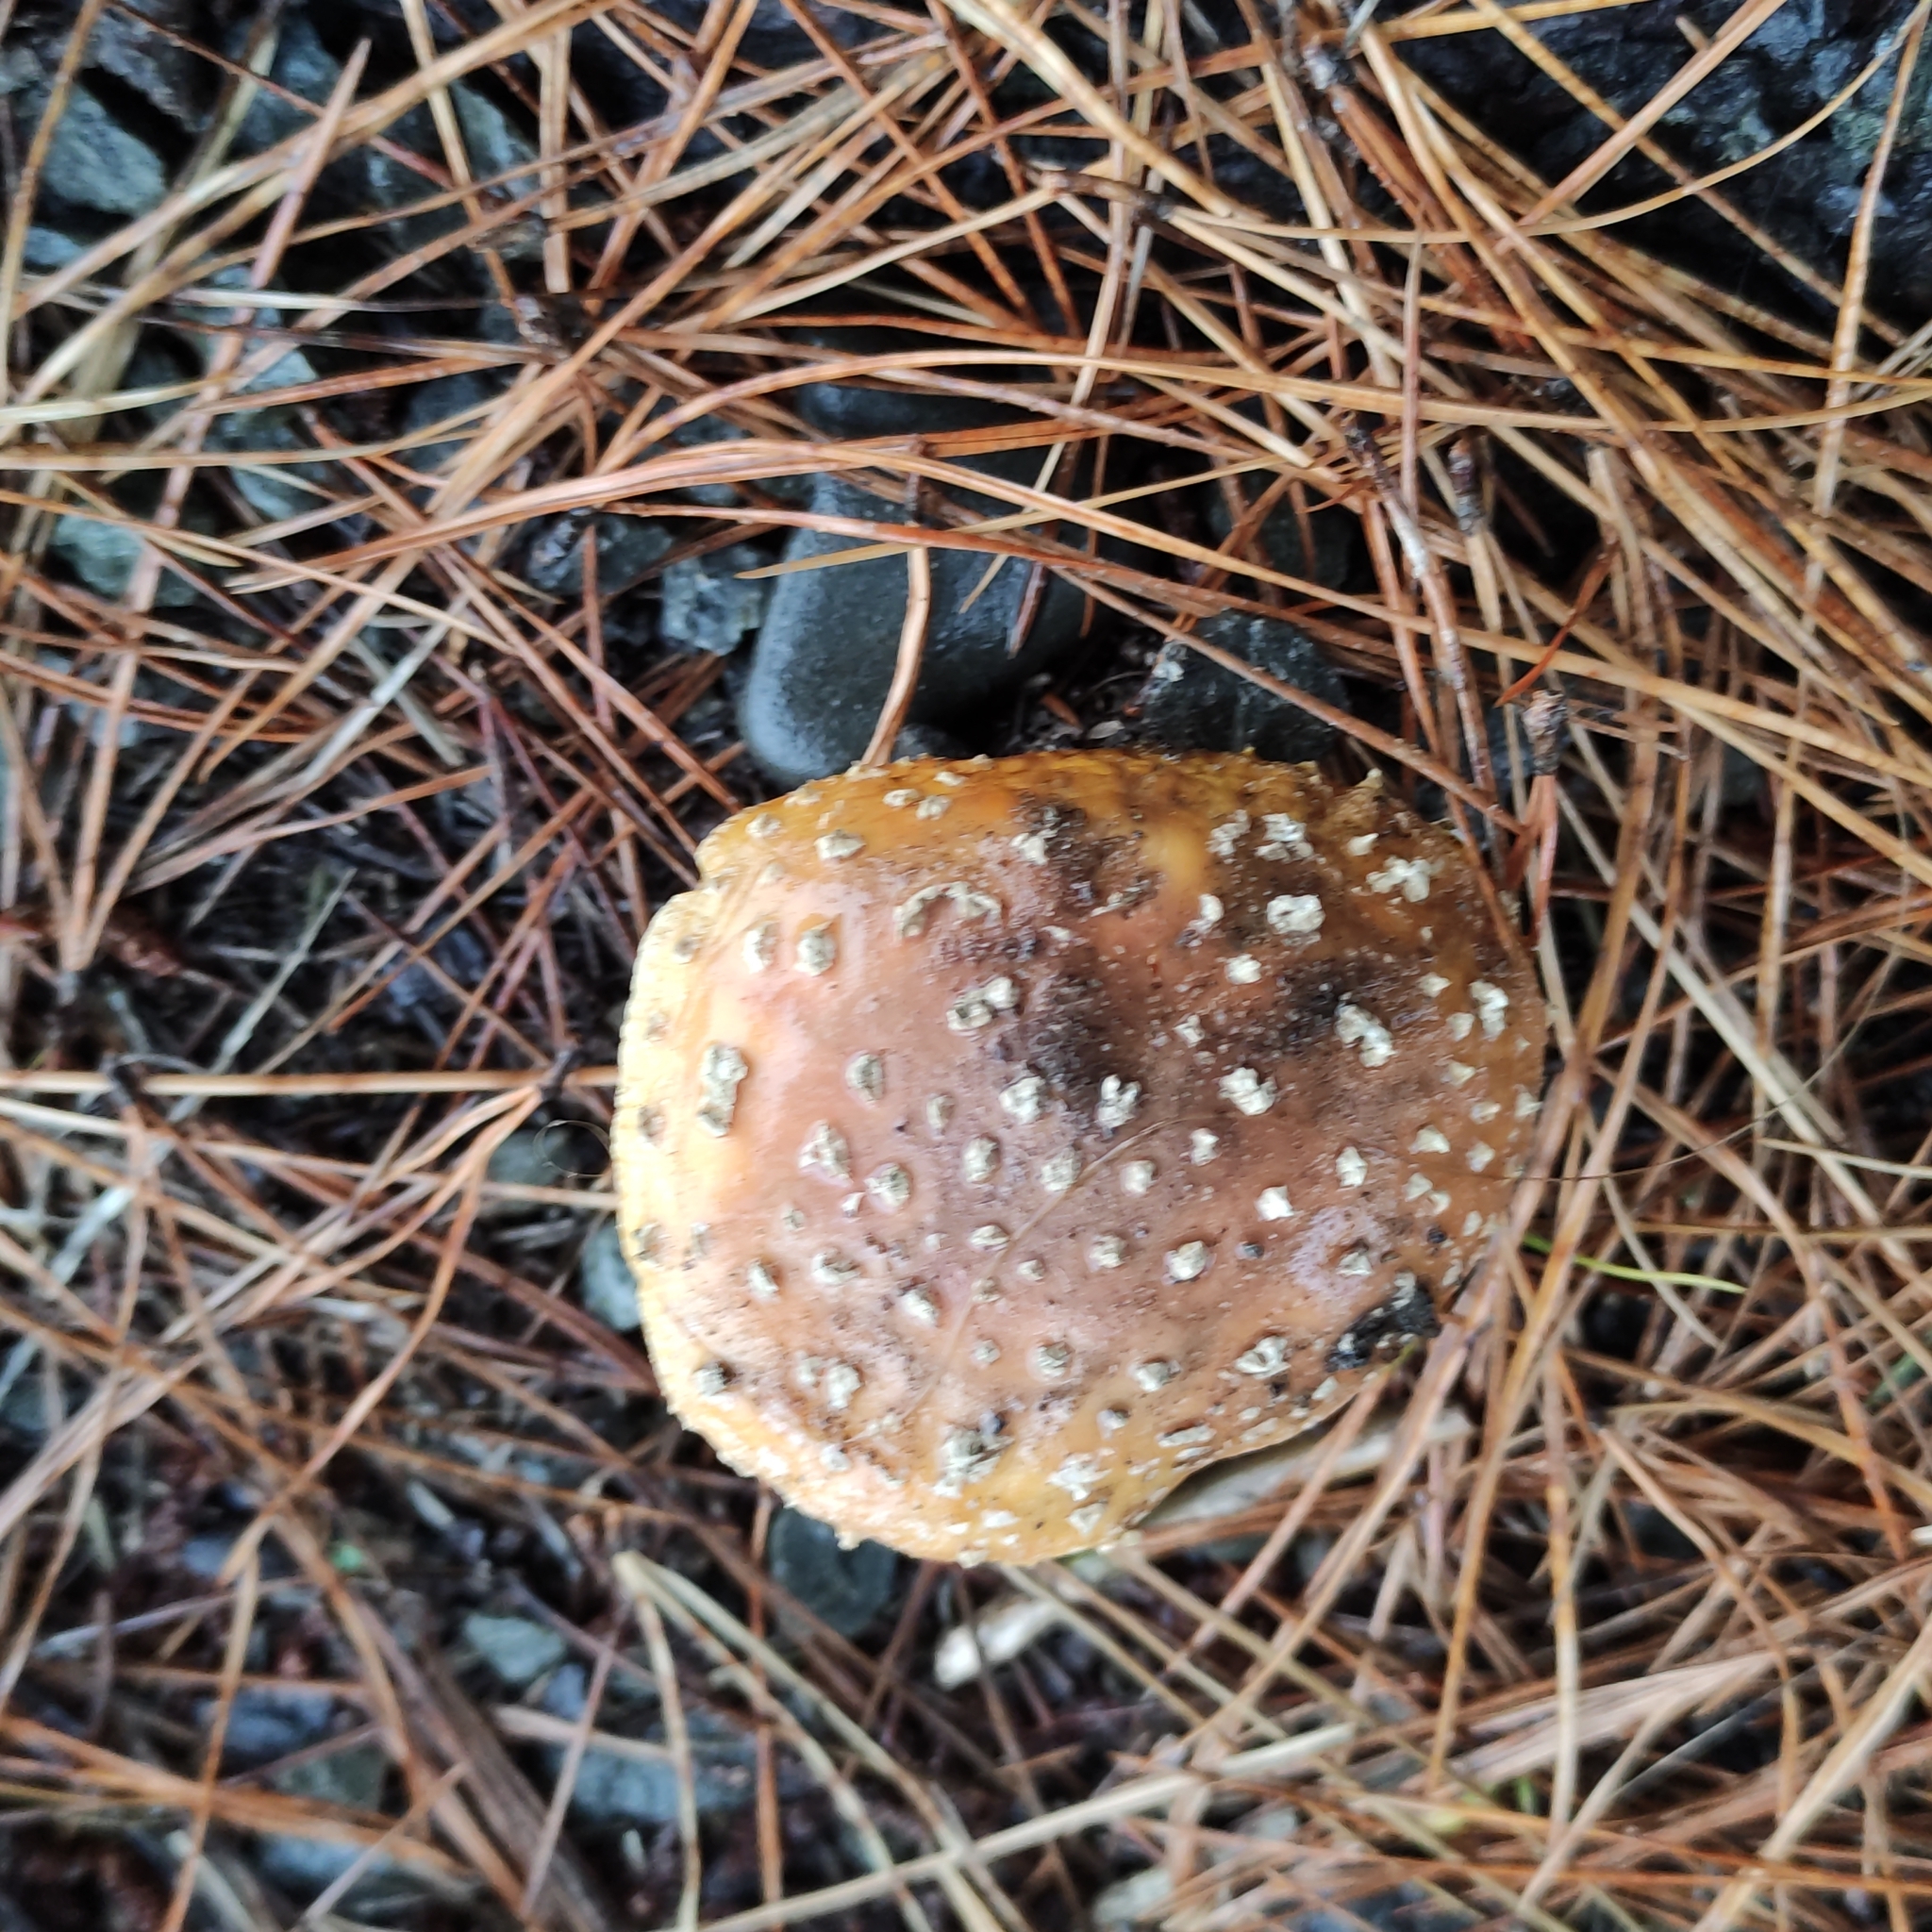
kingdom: Fungi
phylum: Basidiomycota
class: Agaricomycetes
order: Agaricales
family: Amanitaceae
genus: Amanita
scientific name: Amanita muscaria
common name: Fly agaric
